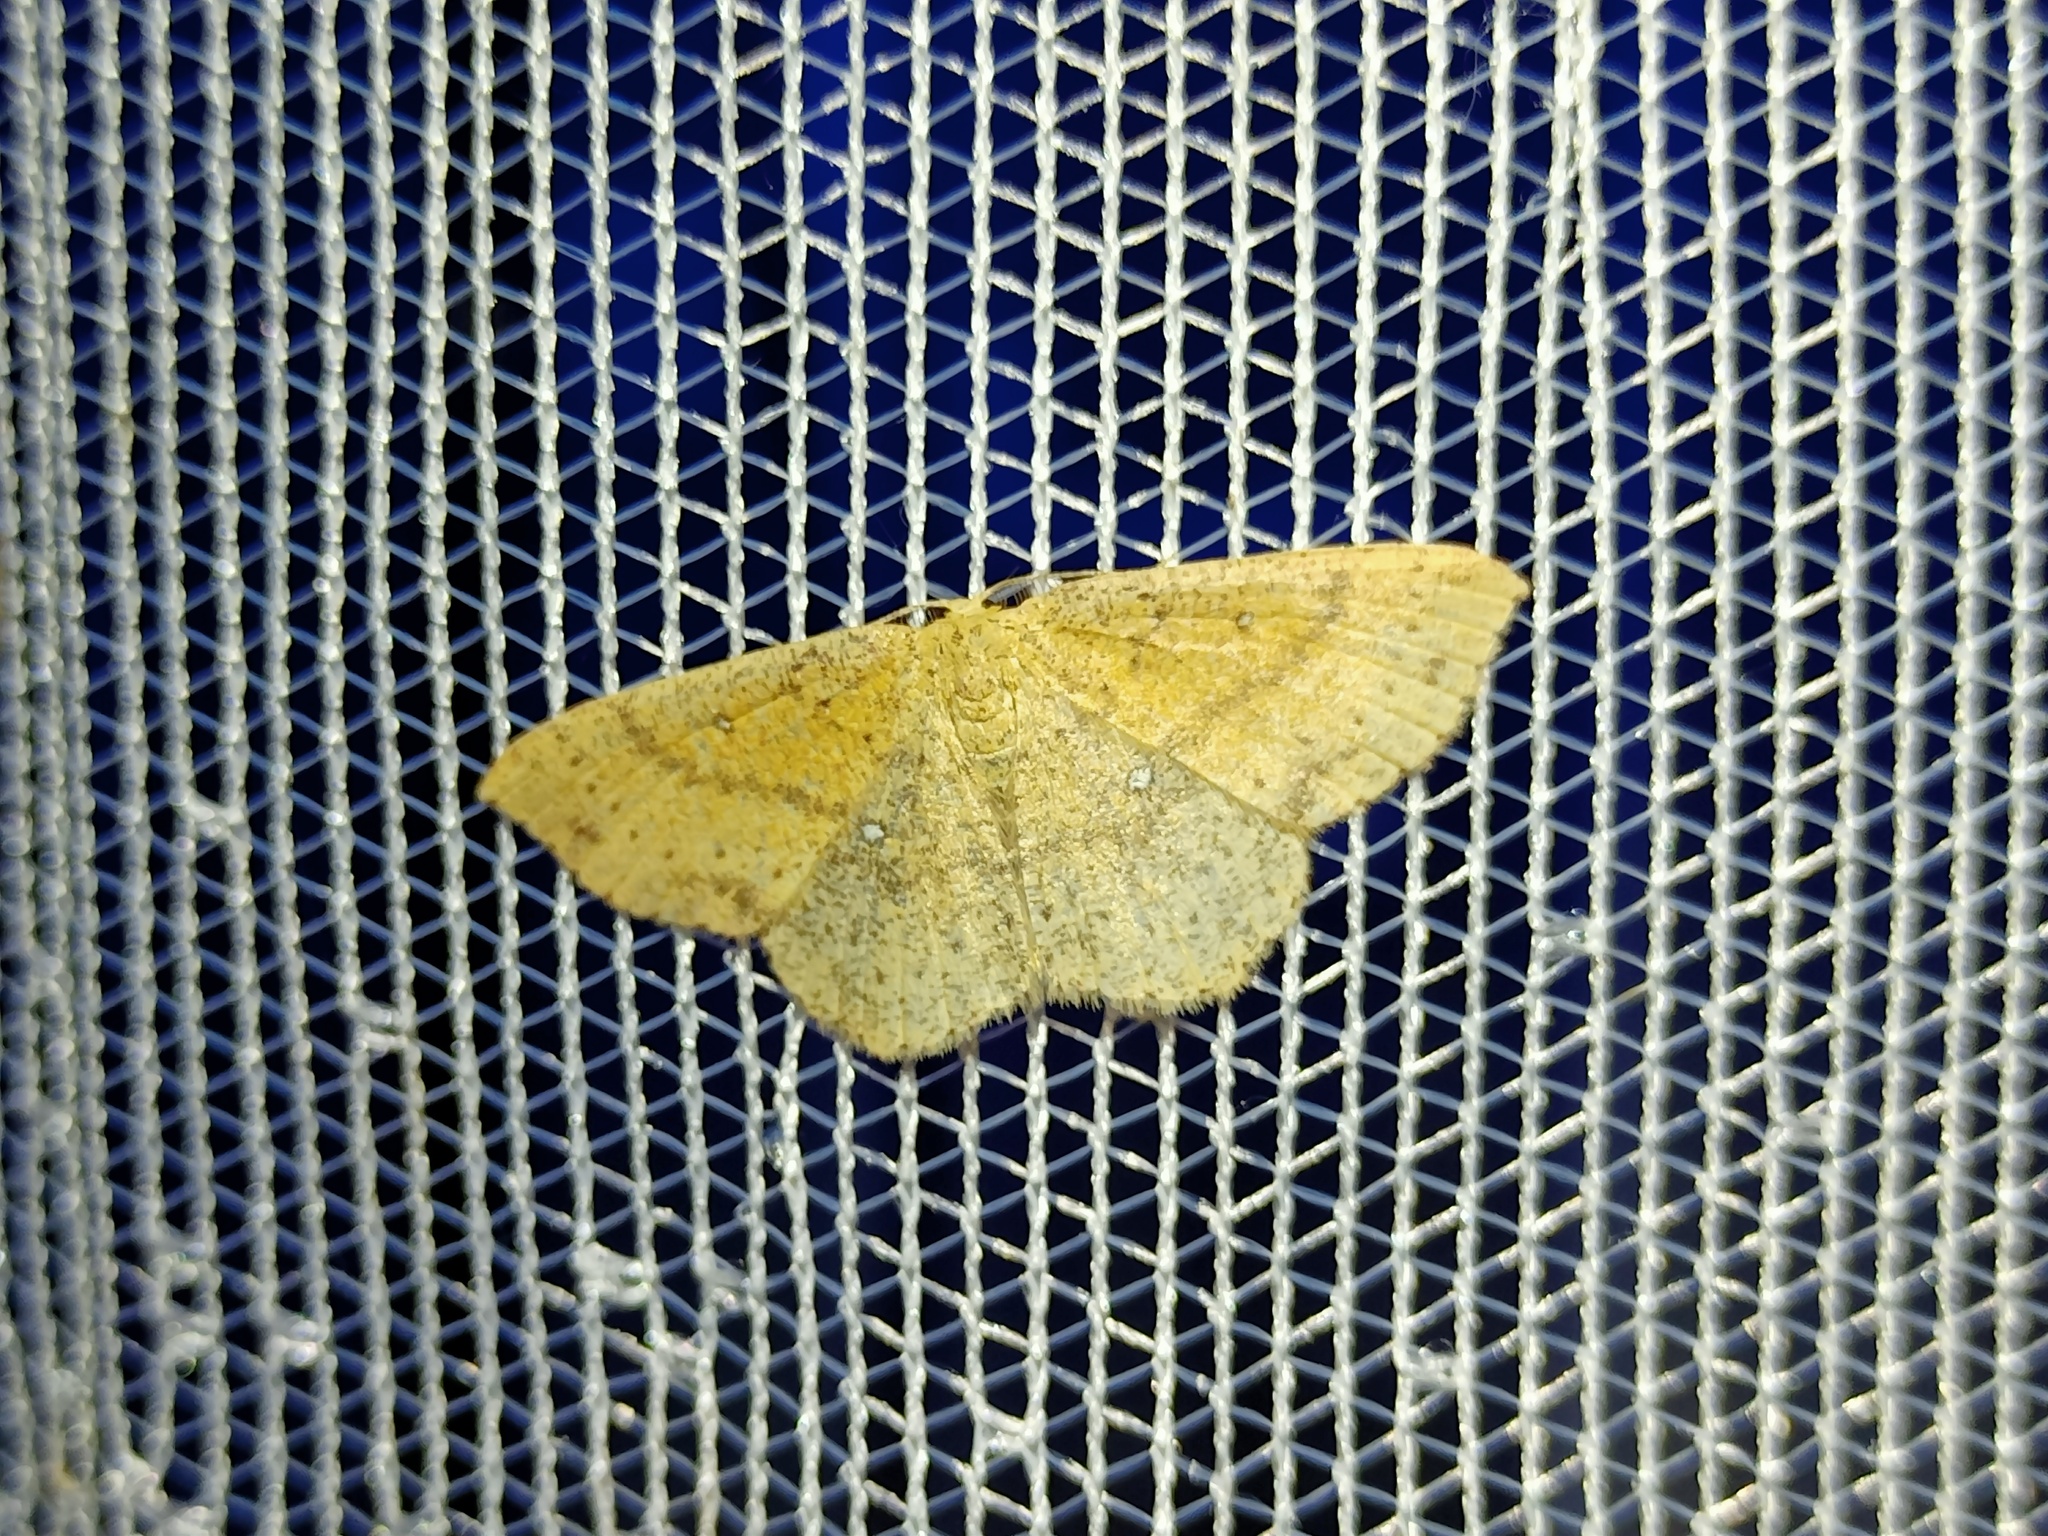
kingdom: Animalia
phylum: Arthropoda
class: Insecta
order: Lepidoptera
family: Geometridae
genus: Cyclophora
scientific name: Cyclophora porata
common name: False mocha
